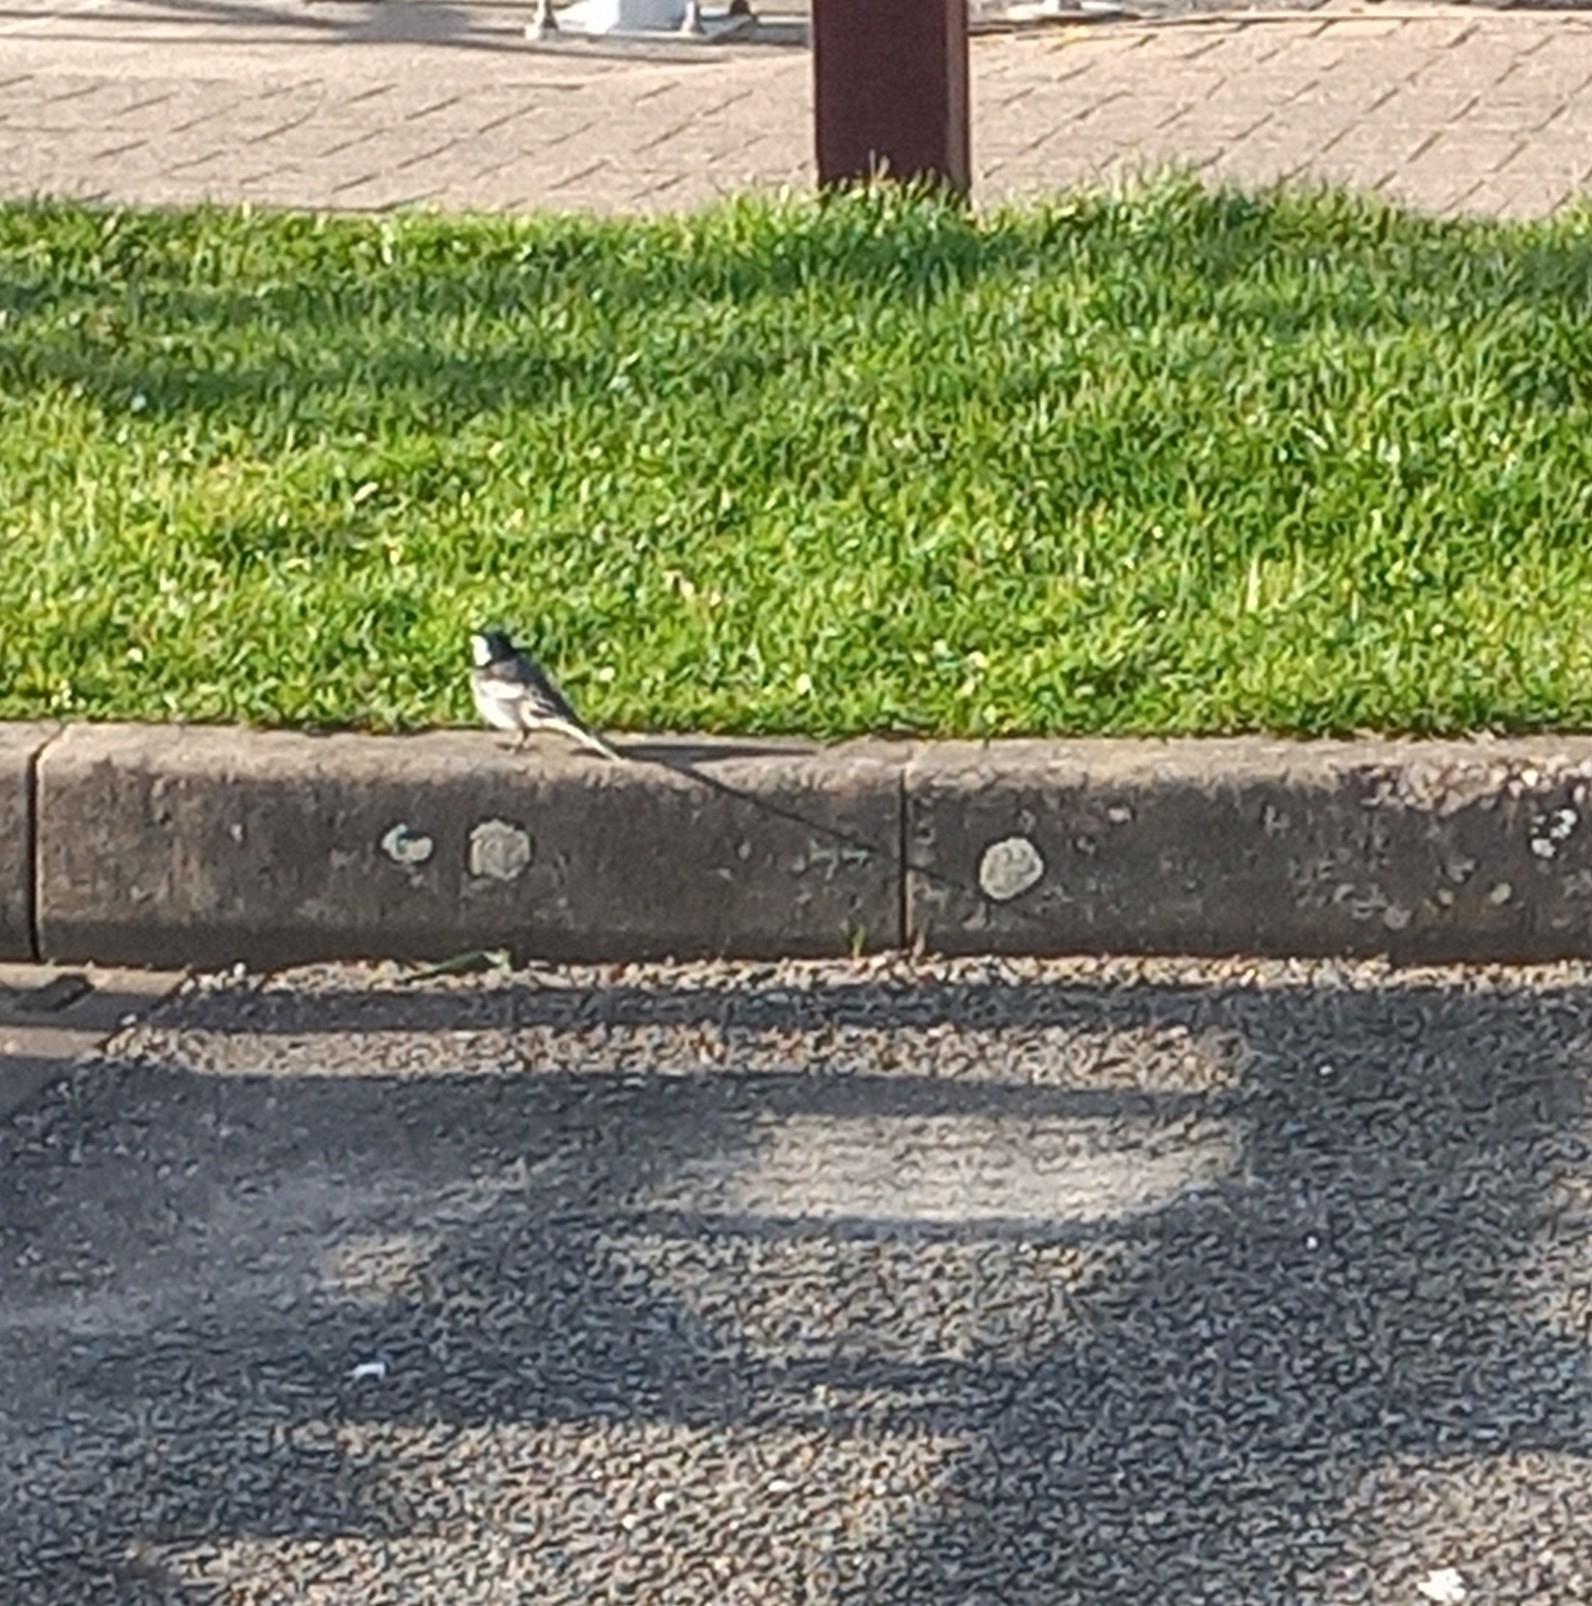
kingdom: Animalia
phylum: Chordata
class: Aves
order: Passeriformes
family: Motacillidae
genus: Motacilla
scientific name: Motacilla alba
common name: White wagtail
